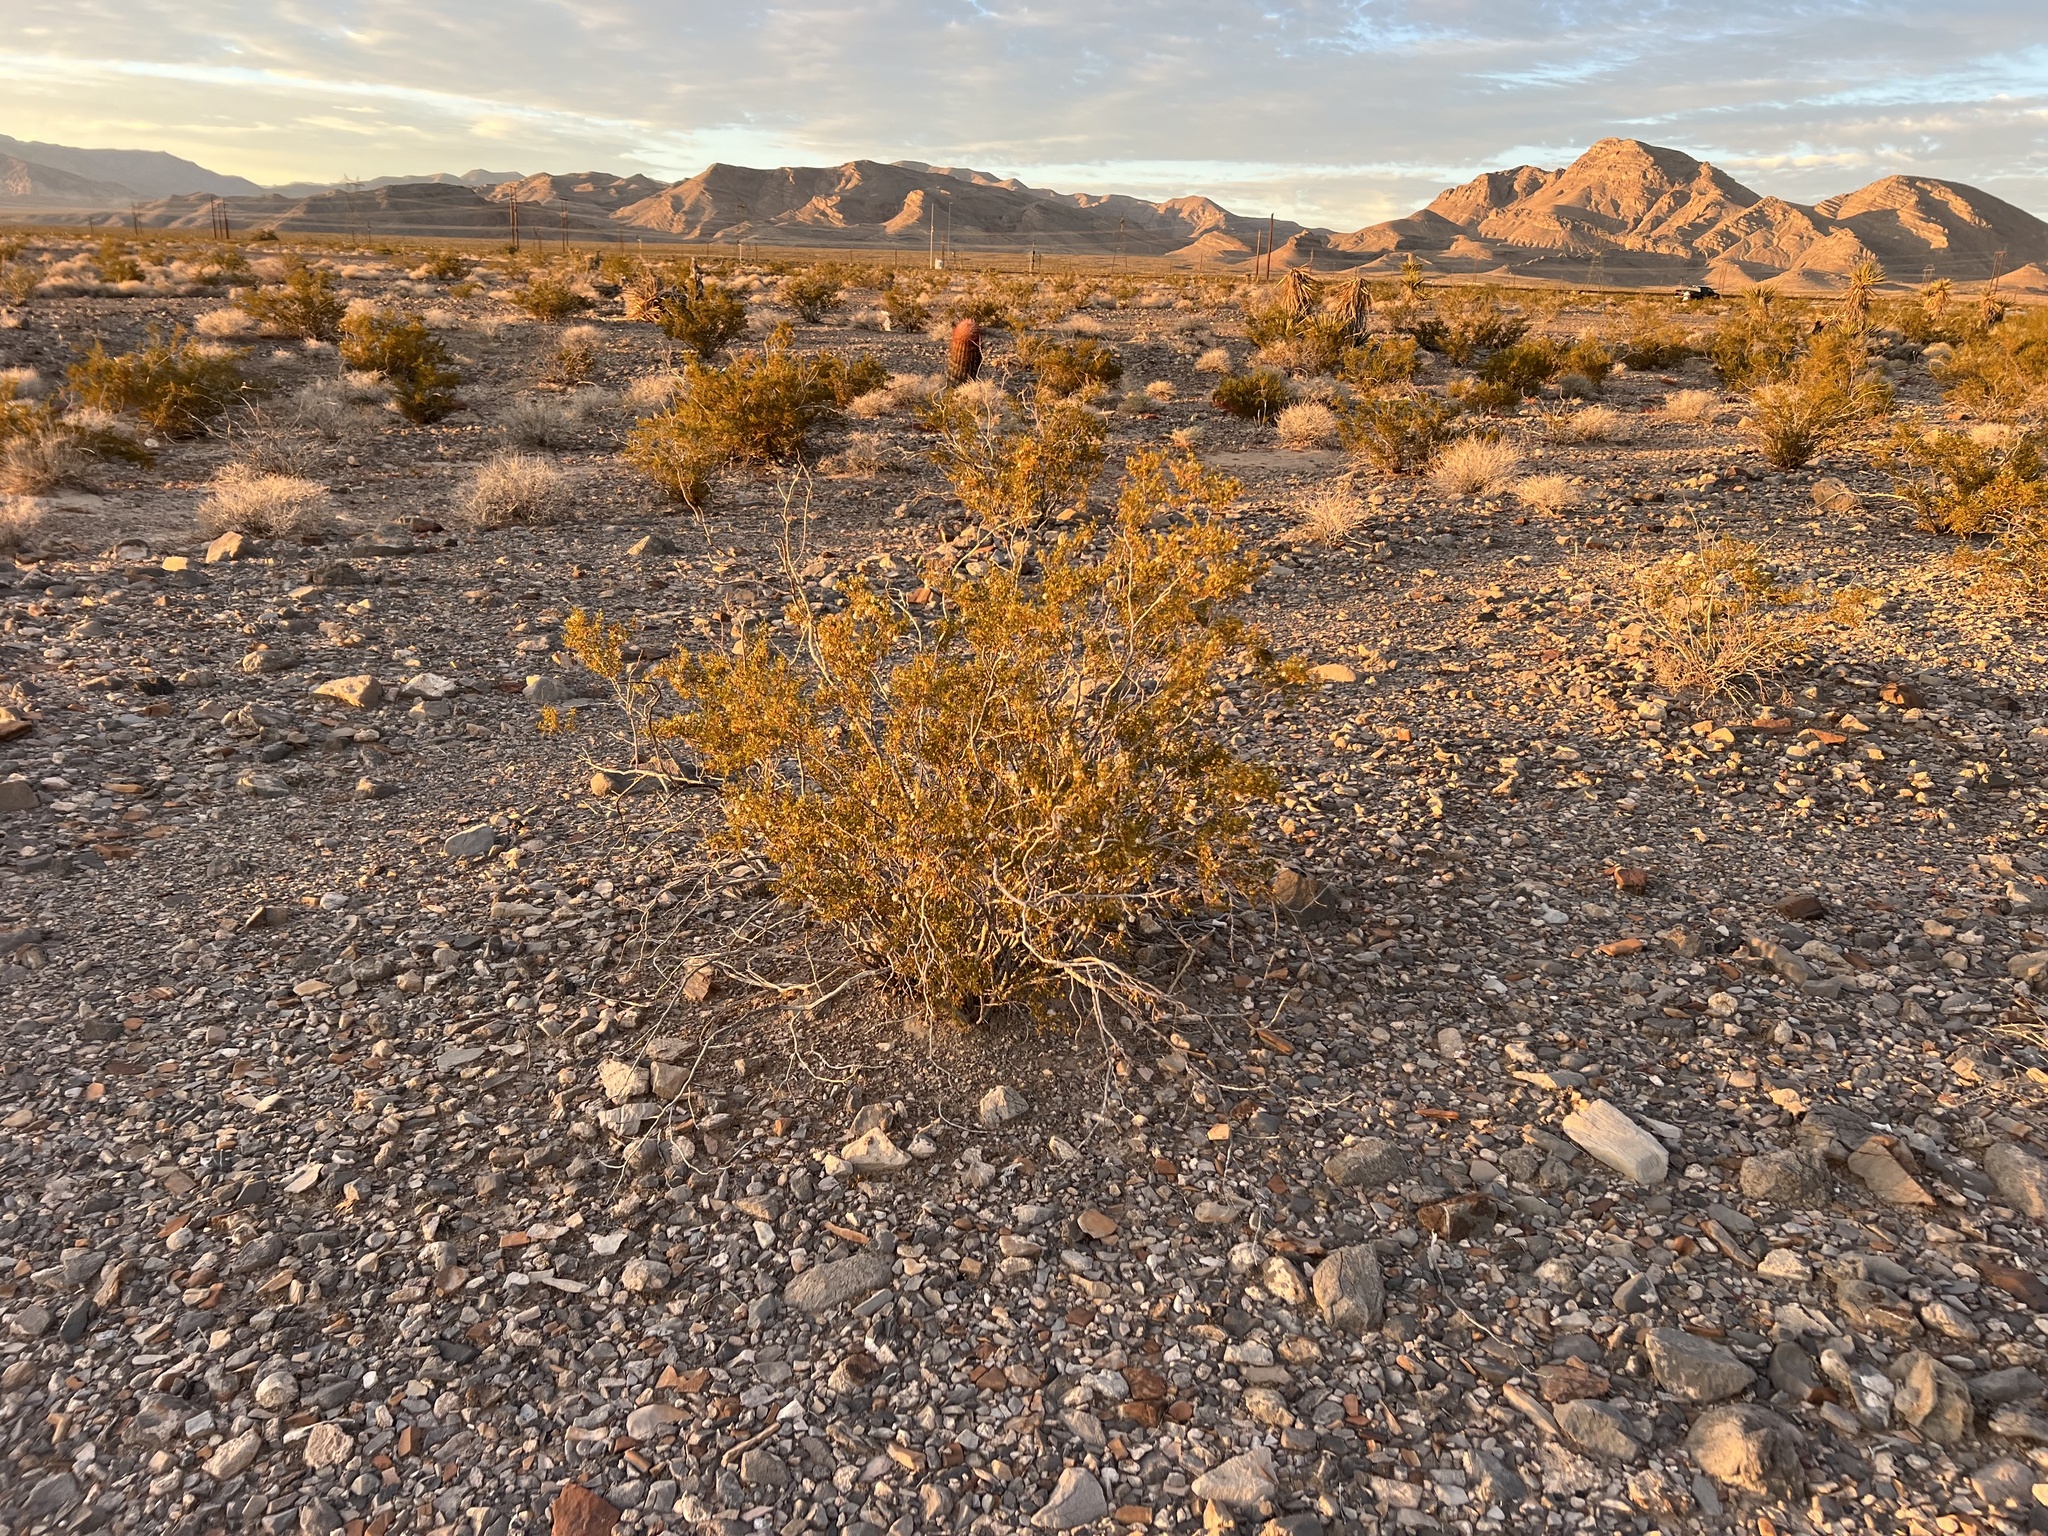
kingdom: Plantae
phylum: Tracheophyta
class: Magnoliopsida
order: Zygophyllales
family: Zygophyllaceae
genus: Larrea
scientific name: Larrea tridentata
